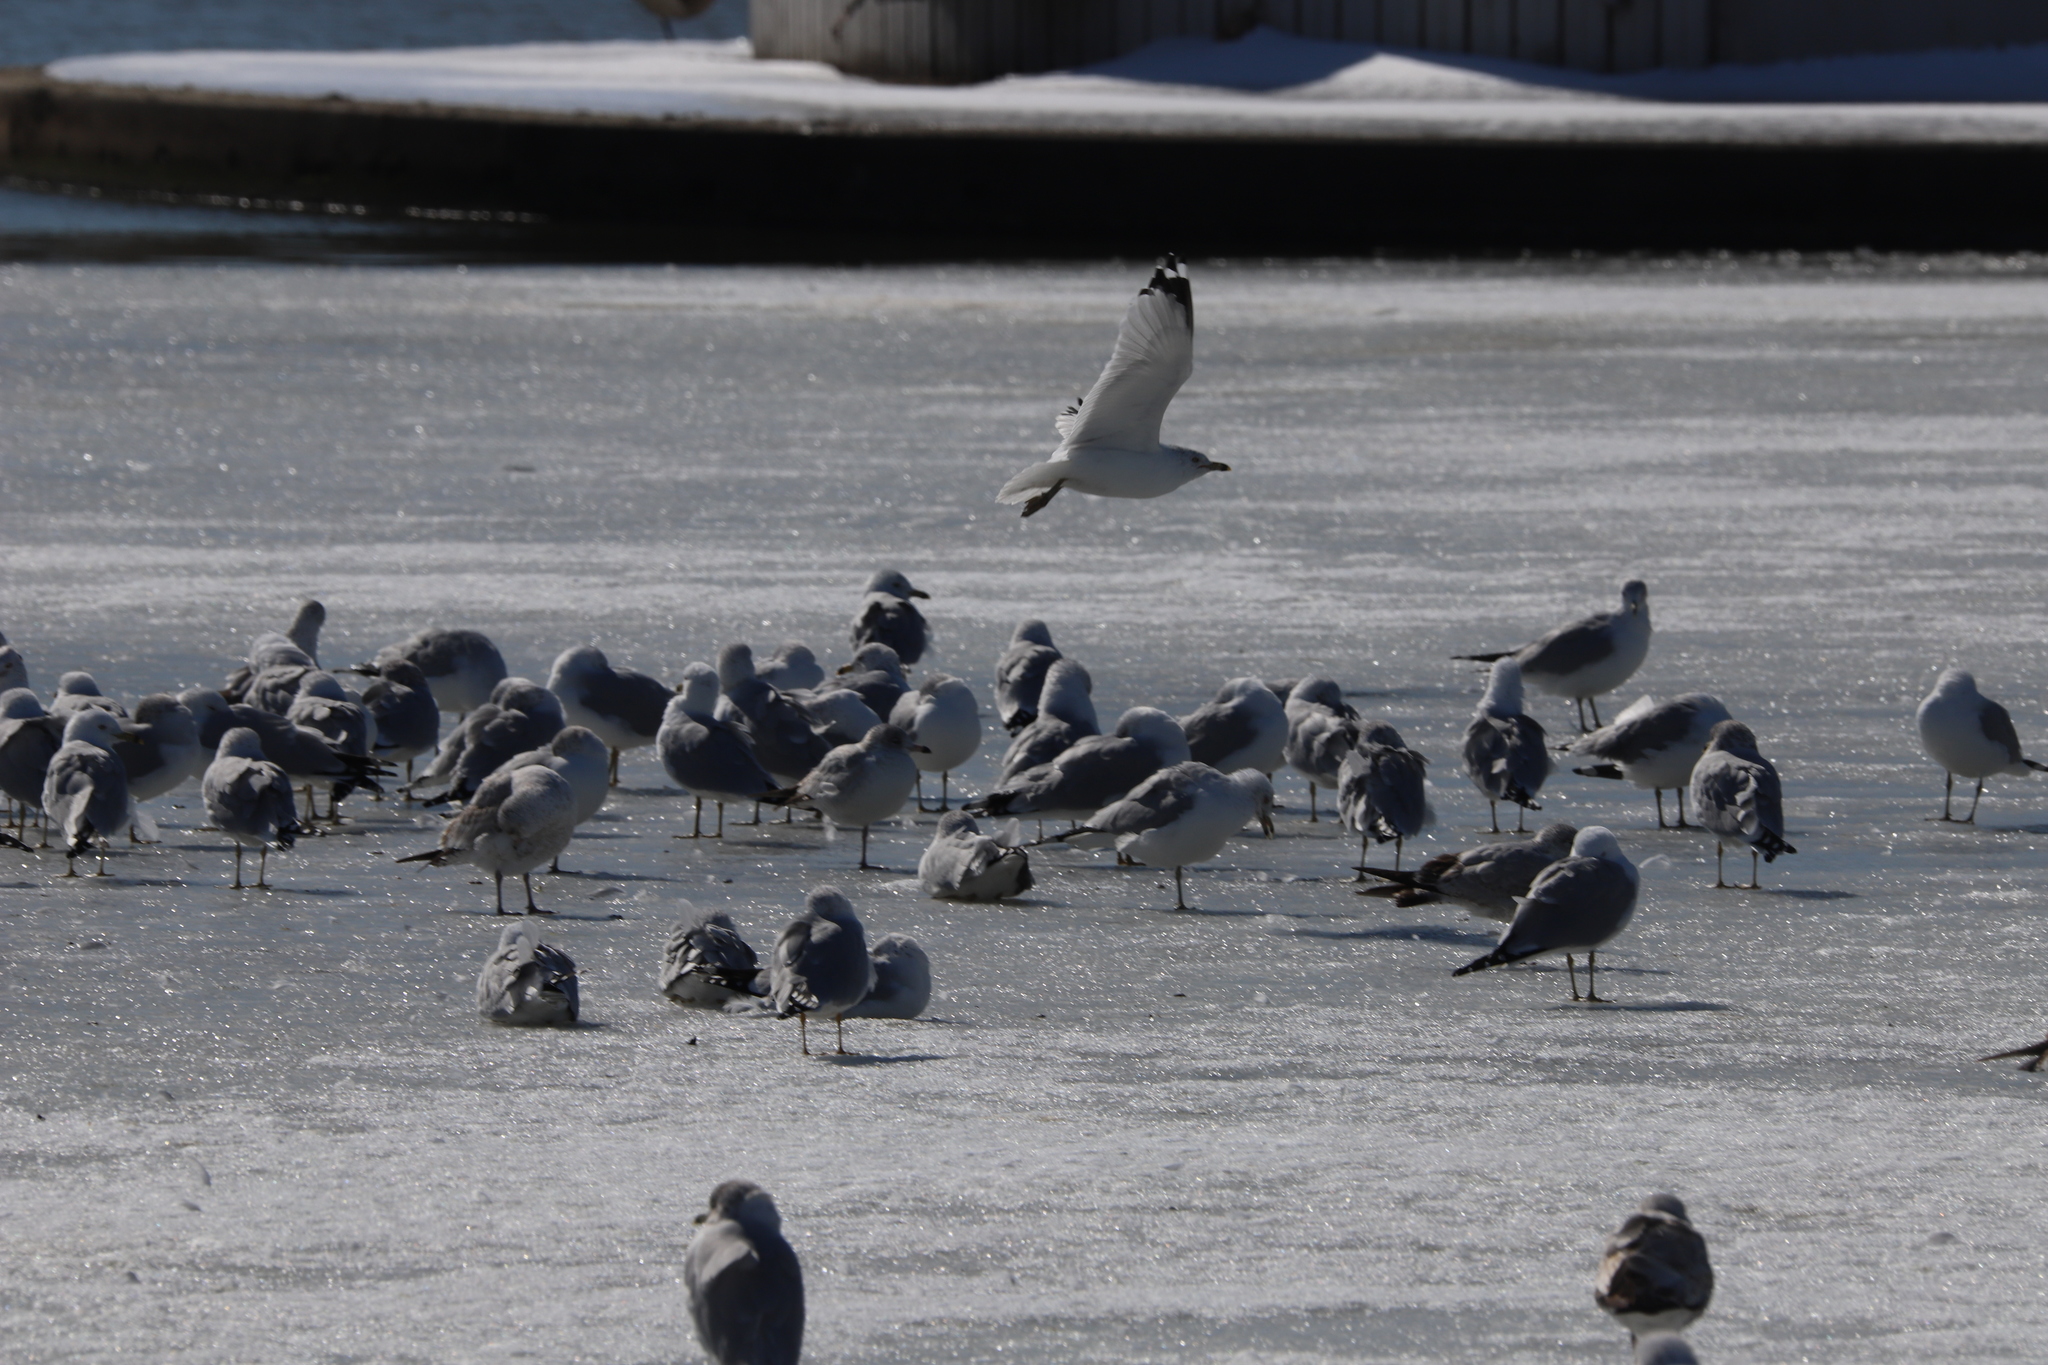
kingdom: Animalia
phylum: Chordata
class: Aves
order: Charadriiformes
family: Laridae
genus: Larus
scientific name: Larus delawarensis
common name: Ring-billed gull
